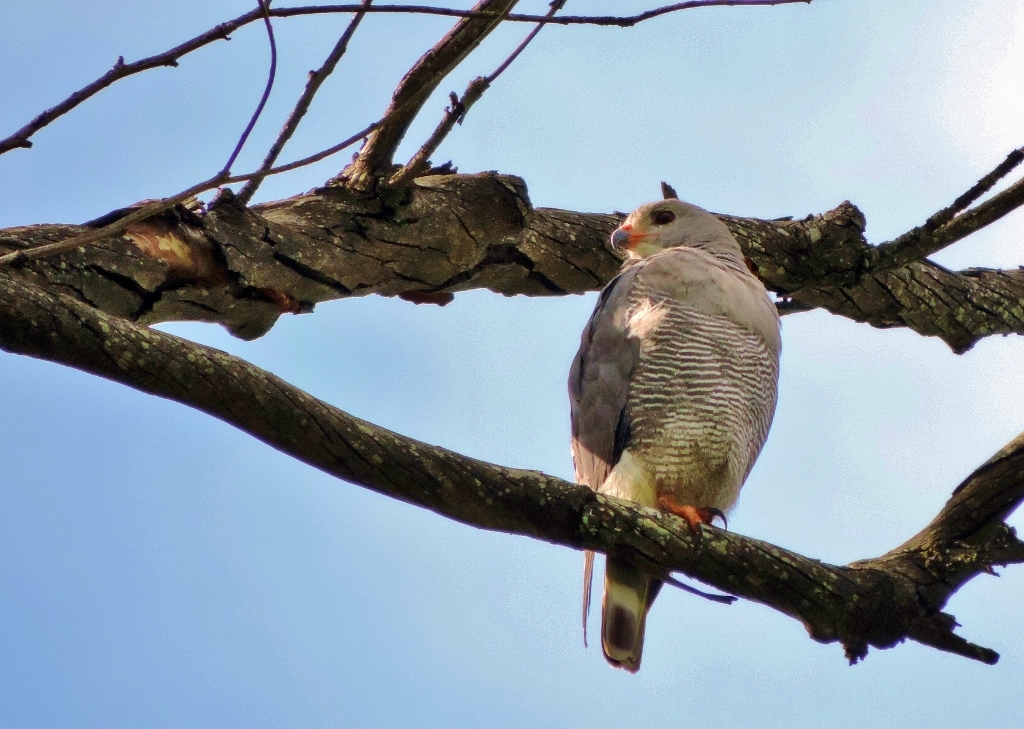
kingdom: Animalia
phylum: Chordata
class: Aves
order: Accipitriformes
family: Accipitridae
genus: Kaupifalco
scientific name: Kaupifalco monogrammicus
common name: Lizard buzzard
